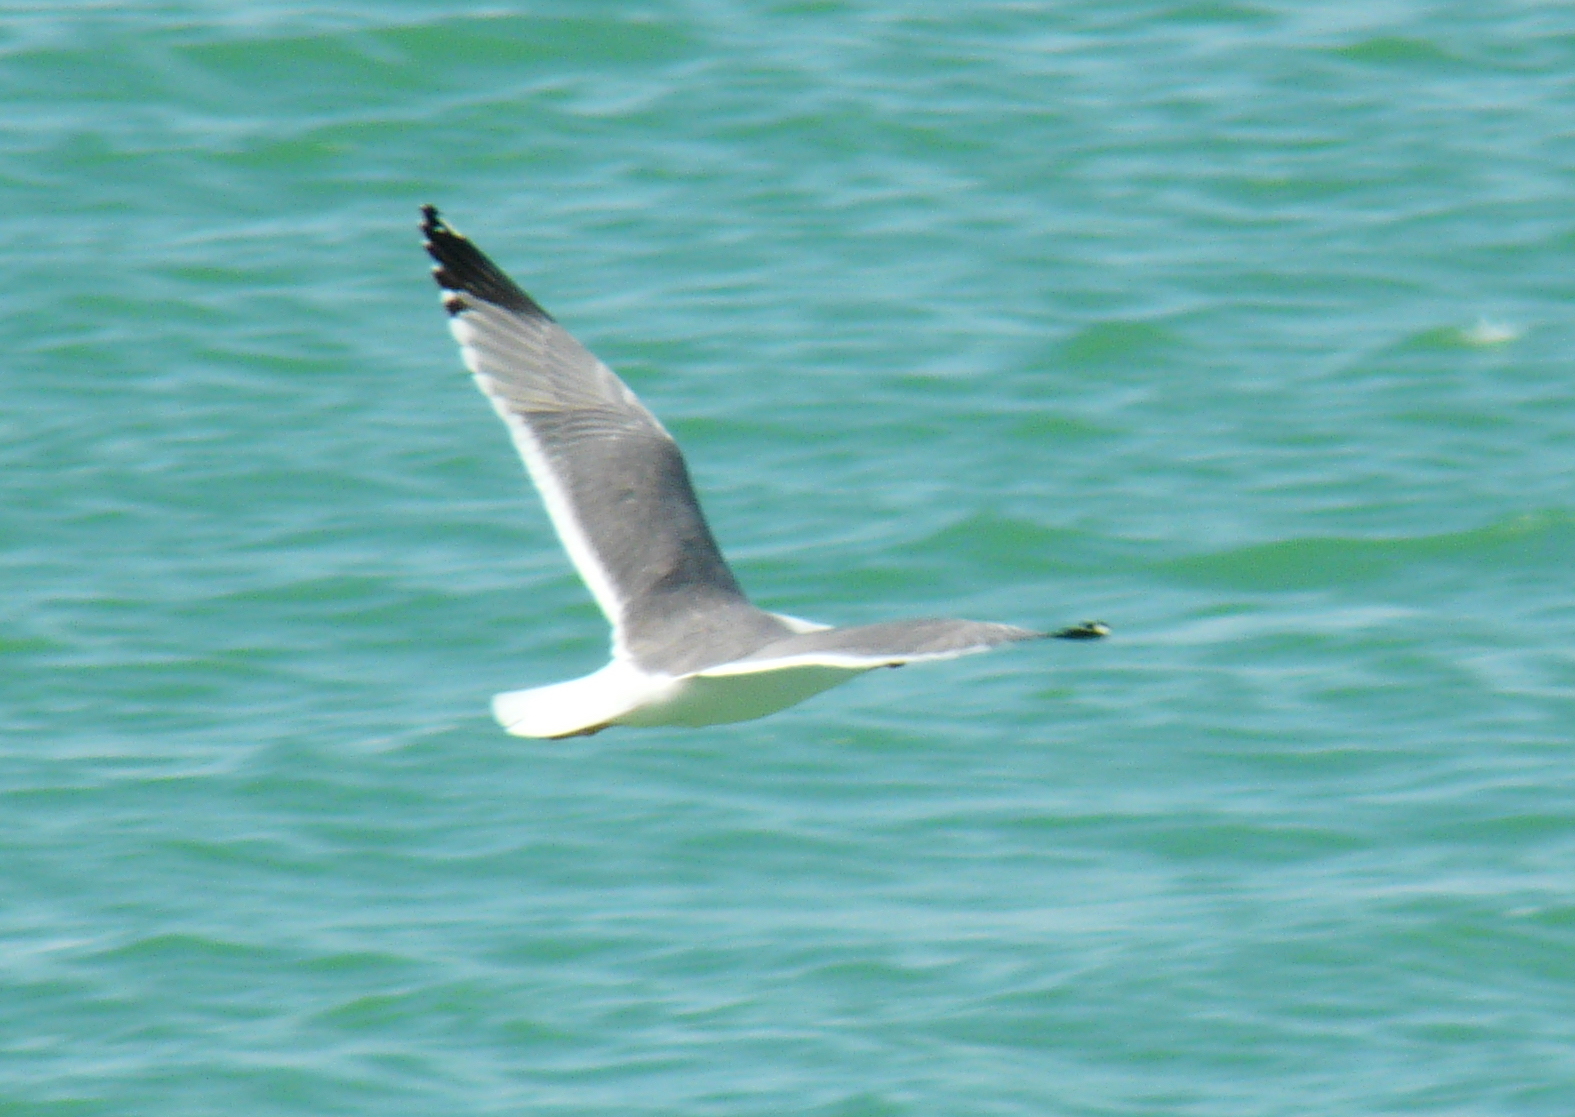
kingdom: Animalia
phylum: Chordata
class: Aves
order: Charadriiformes
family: Laridae
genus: Larus
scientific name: Larus armenicus
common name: Armenian gull
